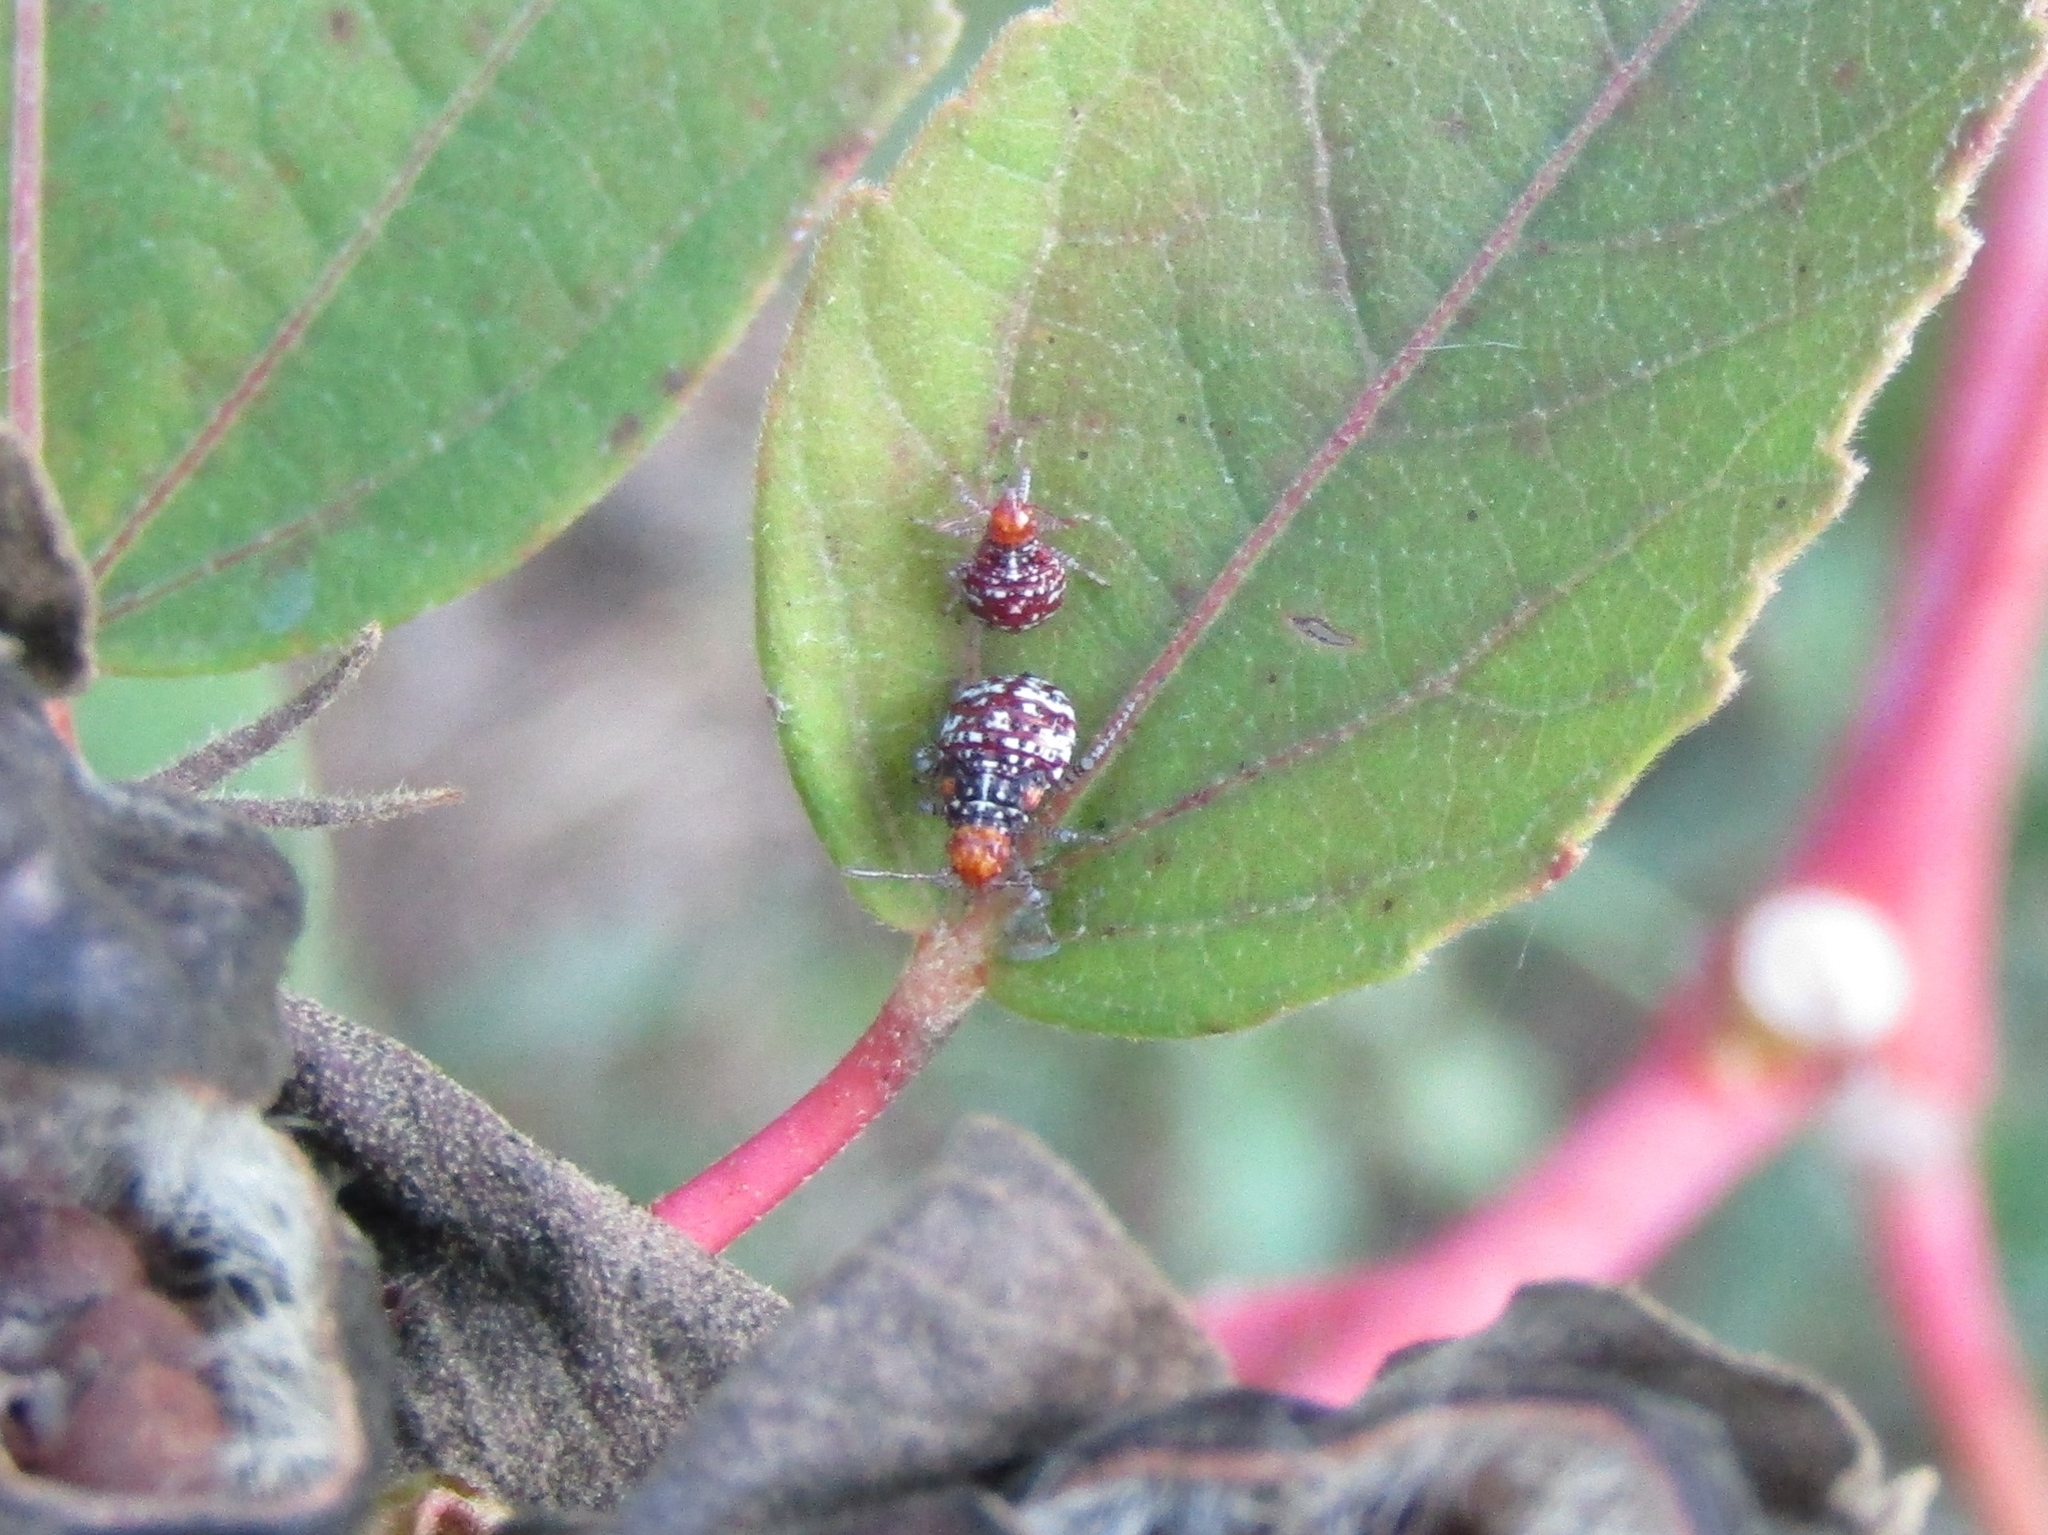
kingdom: Animalia
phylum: Arthropoda
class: Insecta
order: Hemiptera
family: Rhopalidae
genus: Niesthrea
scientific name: Niesthrea louisianica
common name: Scentless plant bug
